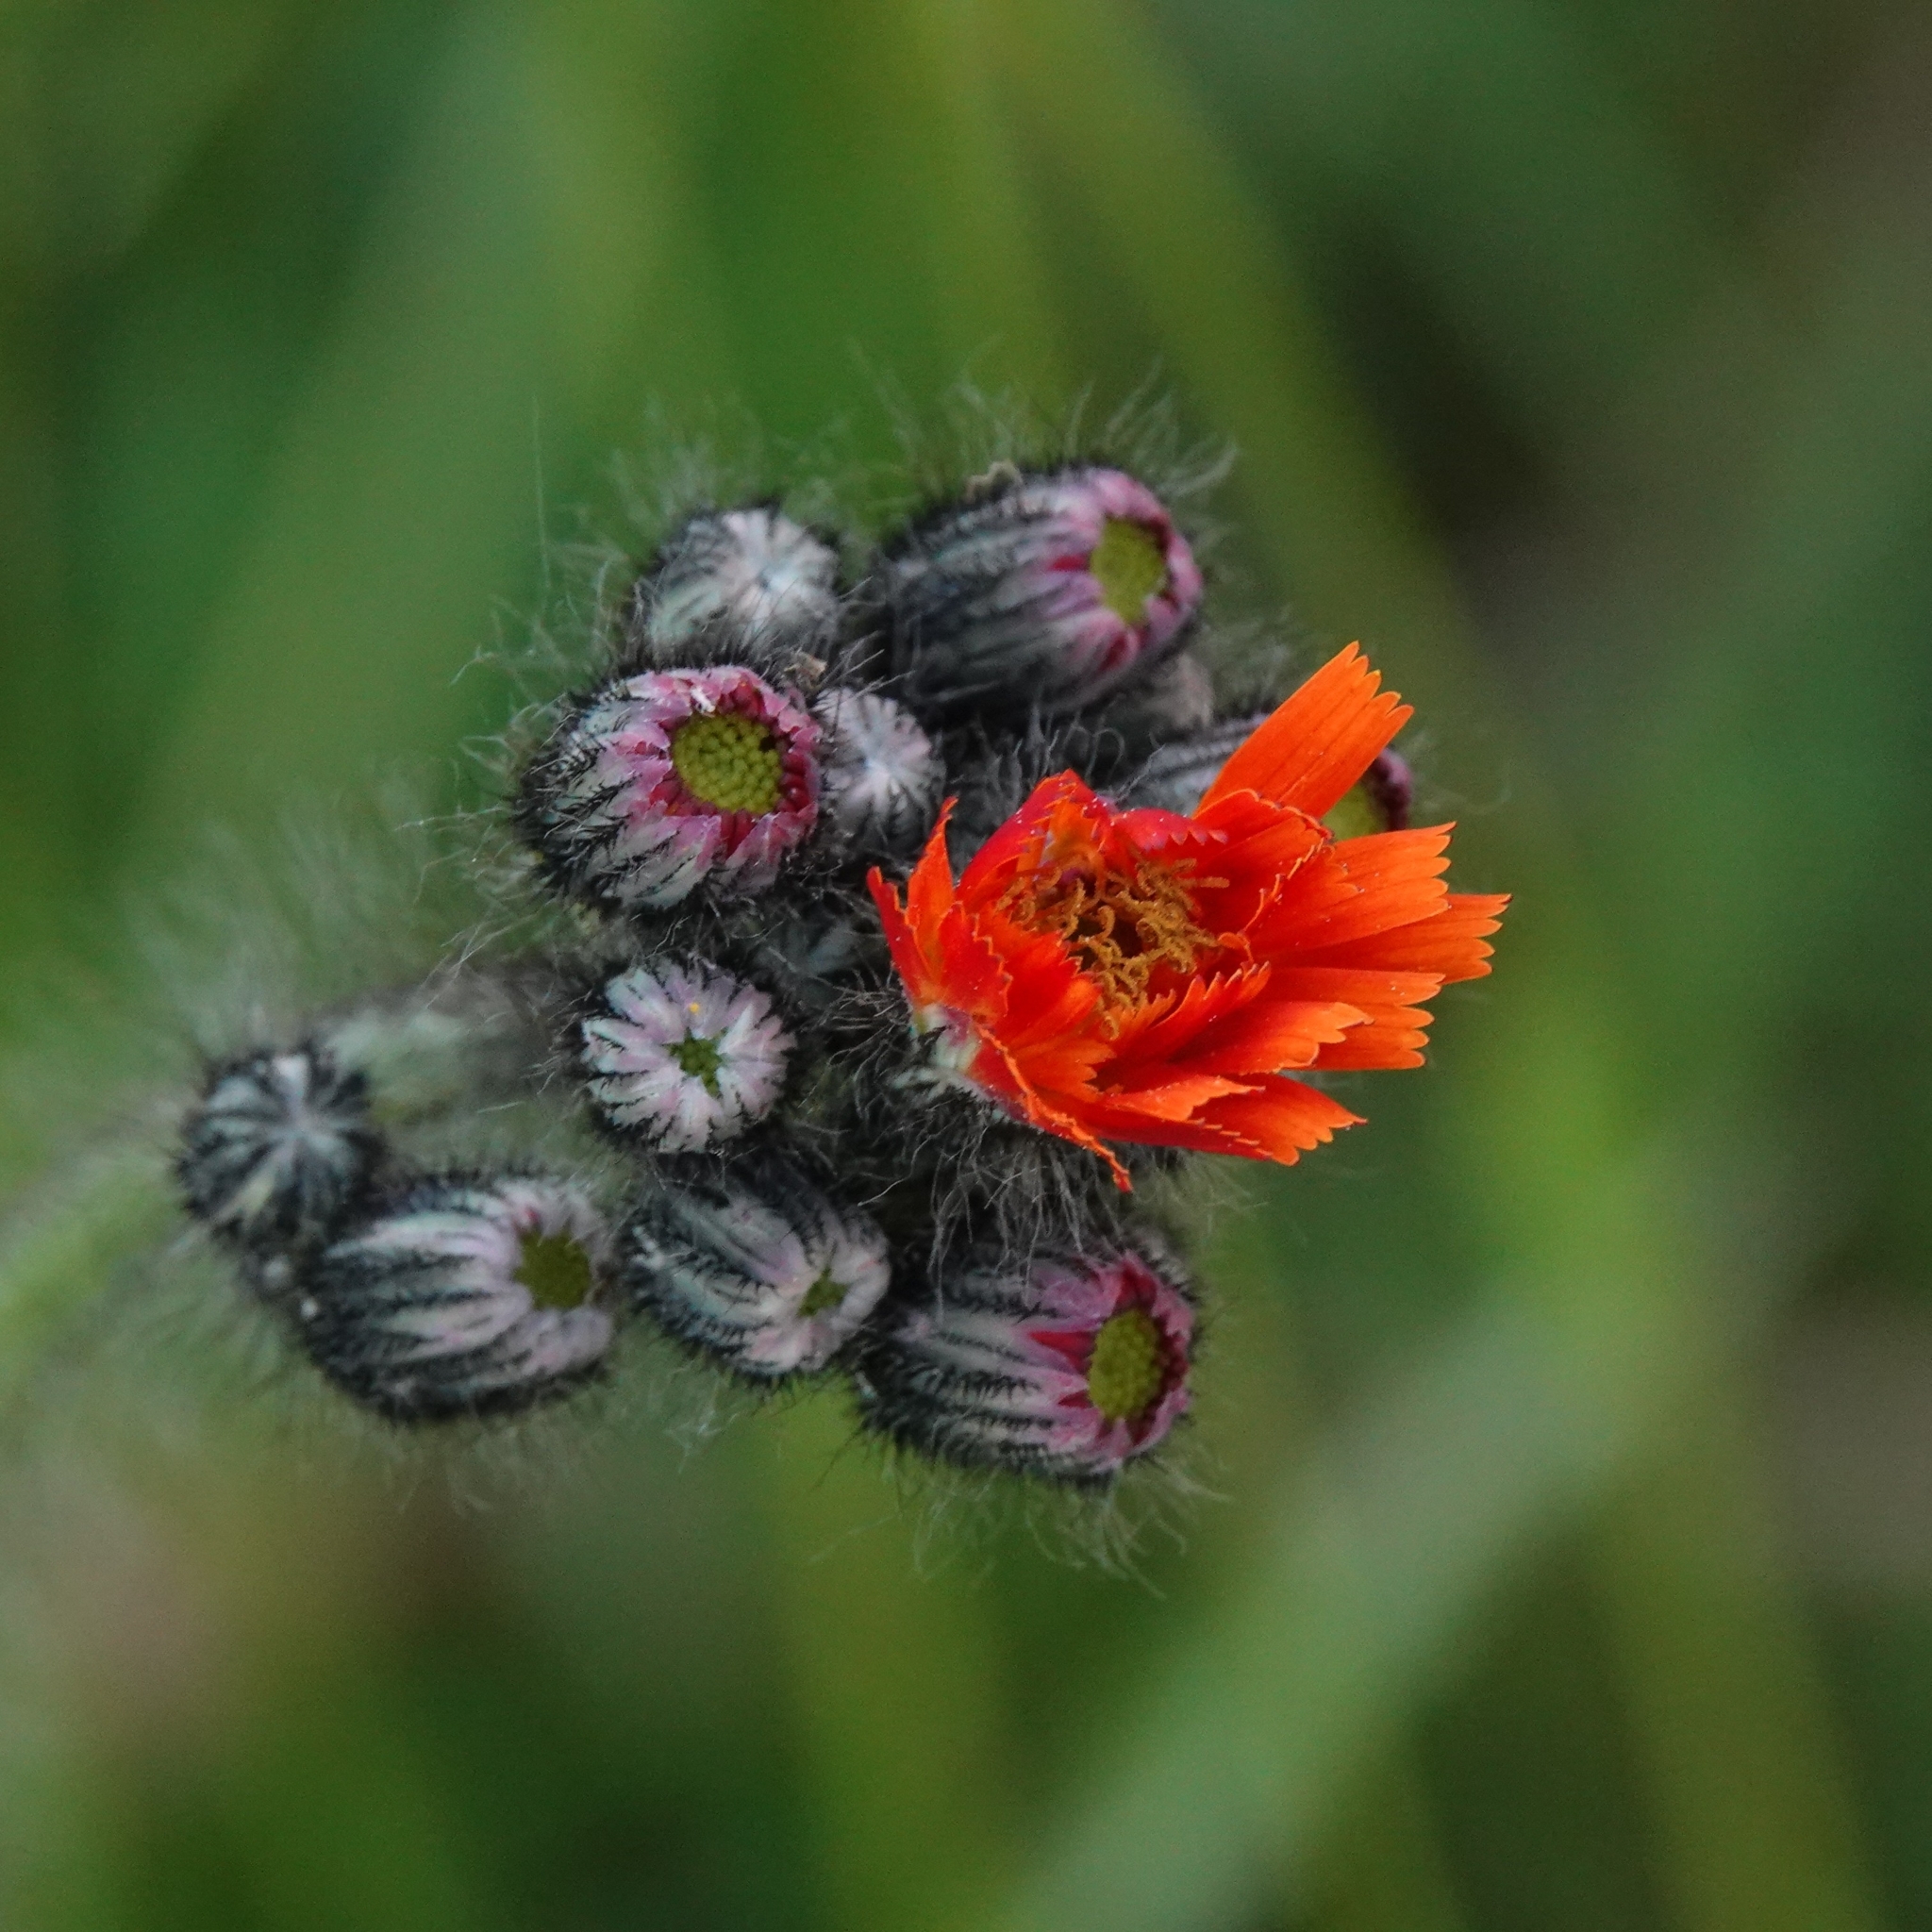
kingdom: Plantae
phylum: Tracheophyta
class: Magnoliopsida
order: Asterales
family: Asteraceae
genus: Pilosella
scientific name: Pilosella aurantiaca
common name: Fox-and-cubs
